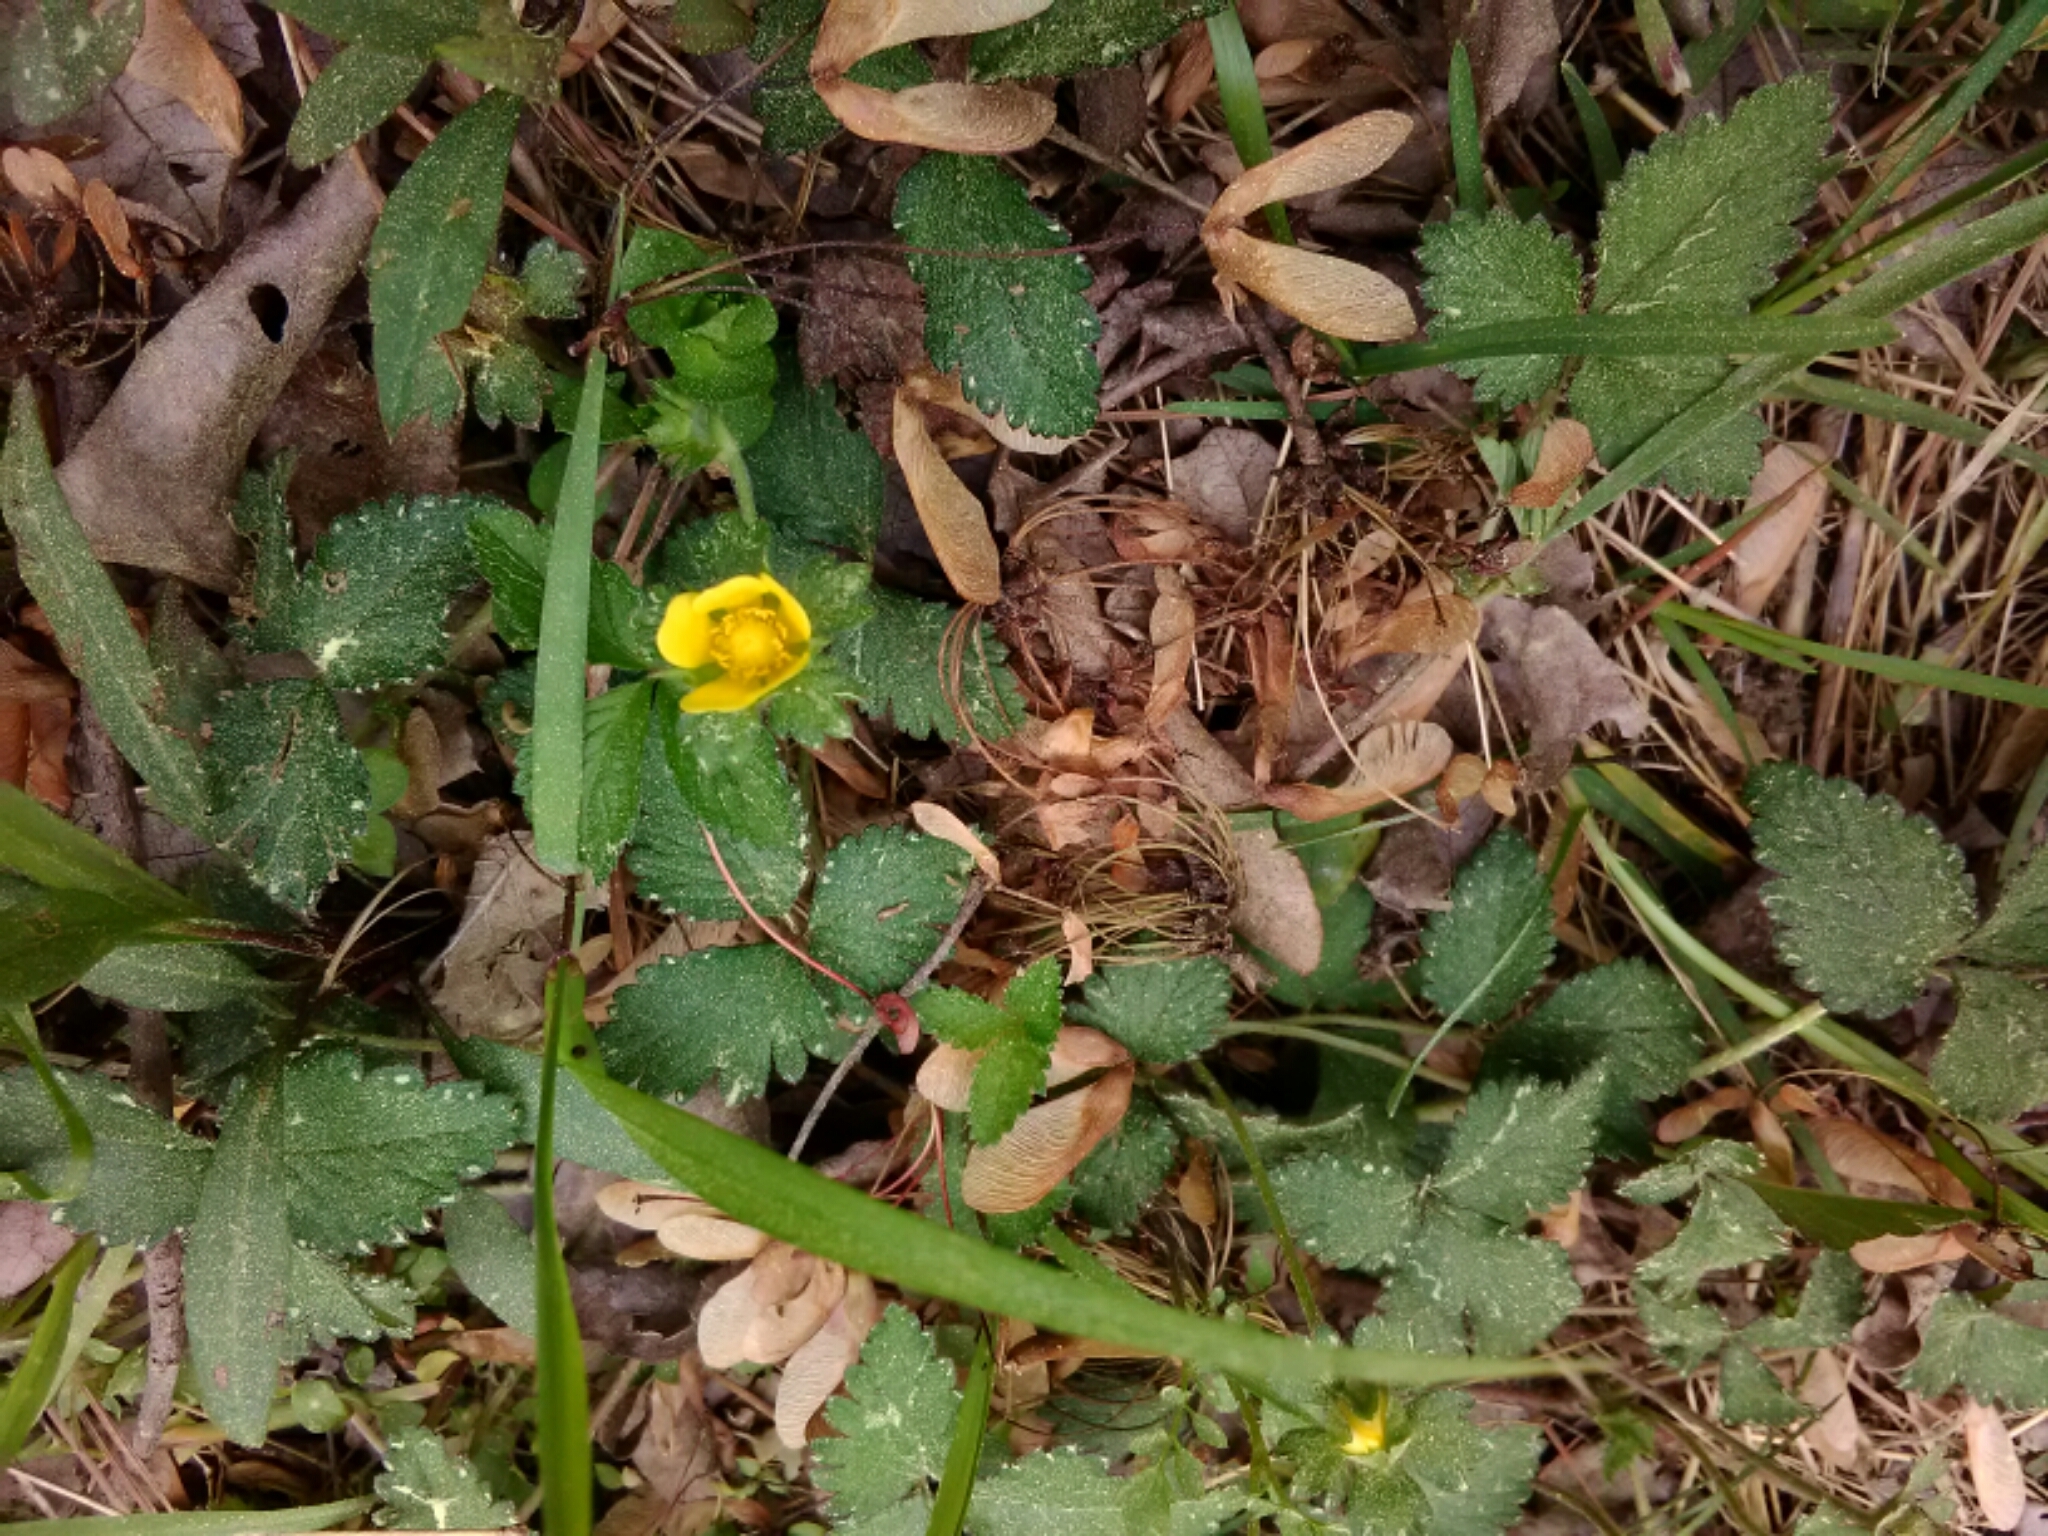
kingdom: Plantae
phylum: Tracheophyta
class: Magnoliopsida
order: Rosales
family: Rosaceae
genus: Potentilla
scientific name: Potentilla indica
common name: Yellow-flowered strawberry
